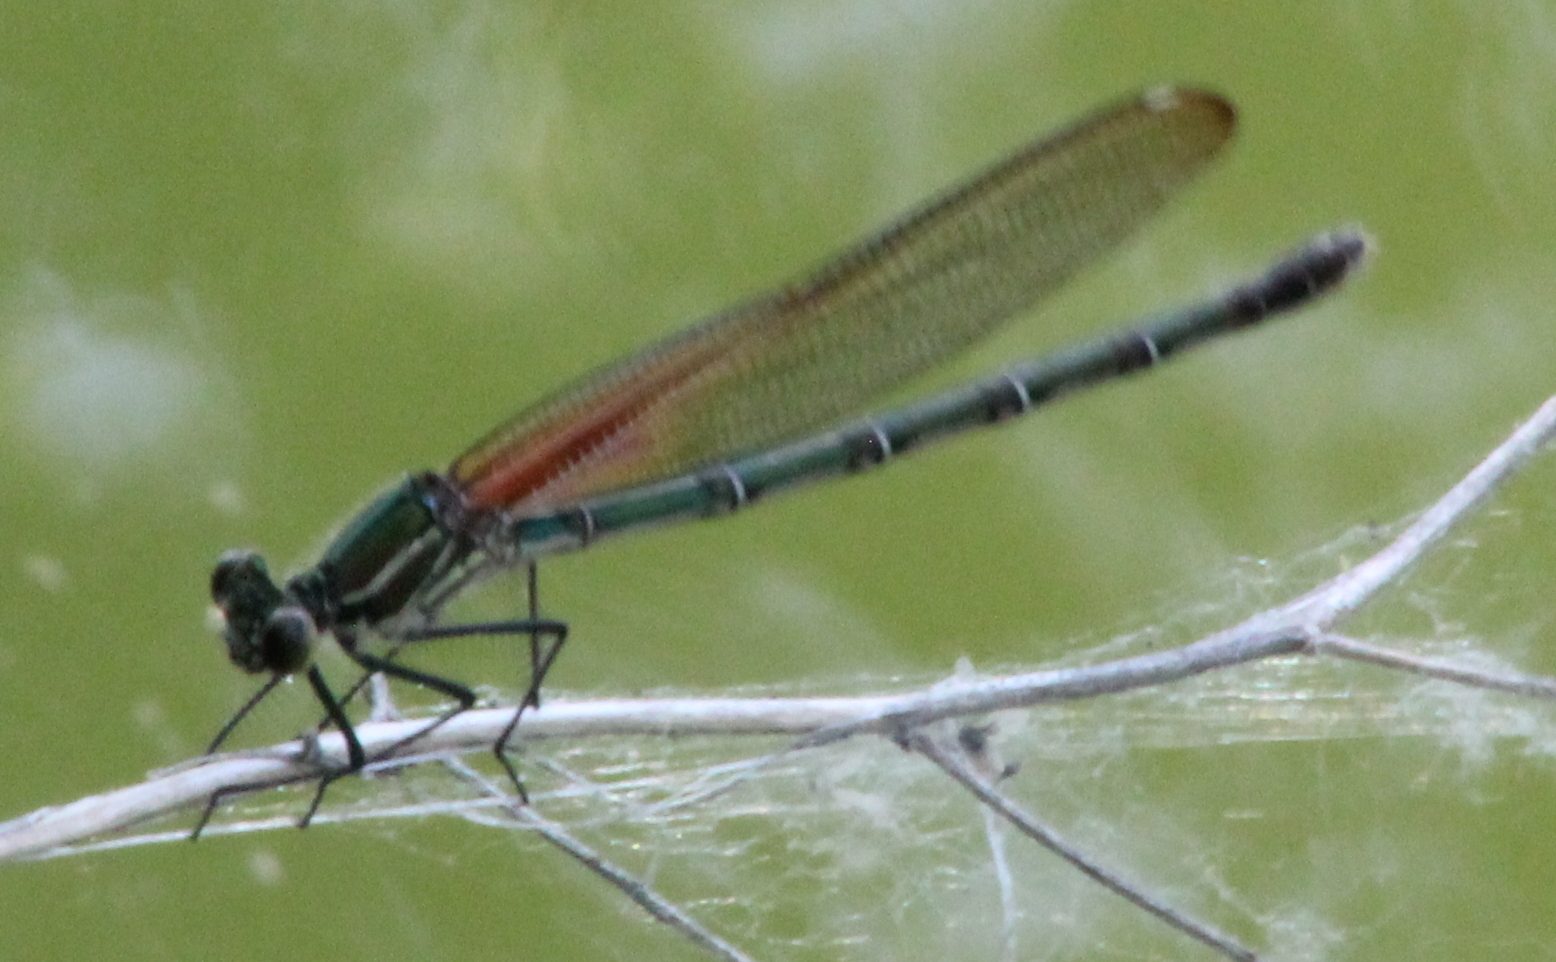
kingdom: Animalia
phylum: Arthropoda
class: Insecta
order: Odonata
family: Calopterygidae
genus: Hetaerina
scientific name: Hetaerina americana
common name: American rubyspot
